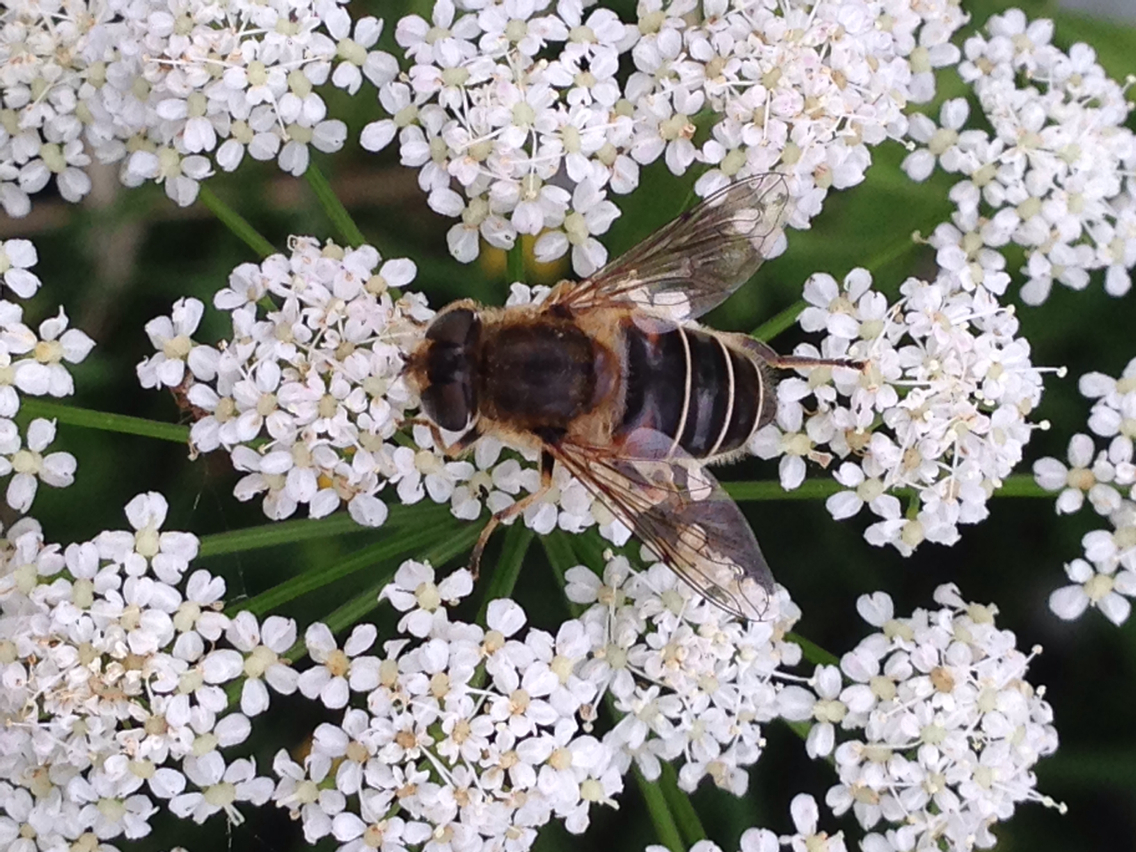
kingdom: Animalia
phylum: Arthropoda
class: Insecta
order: Diptera
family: Syrphidae
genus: Eristalis
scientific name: Eristalis nemorum
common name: Orange-spined drone fly
